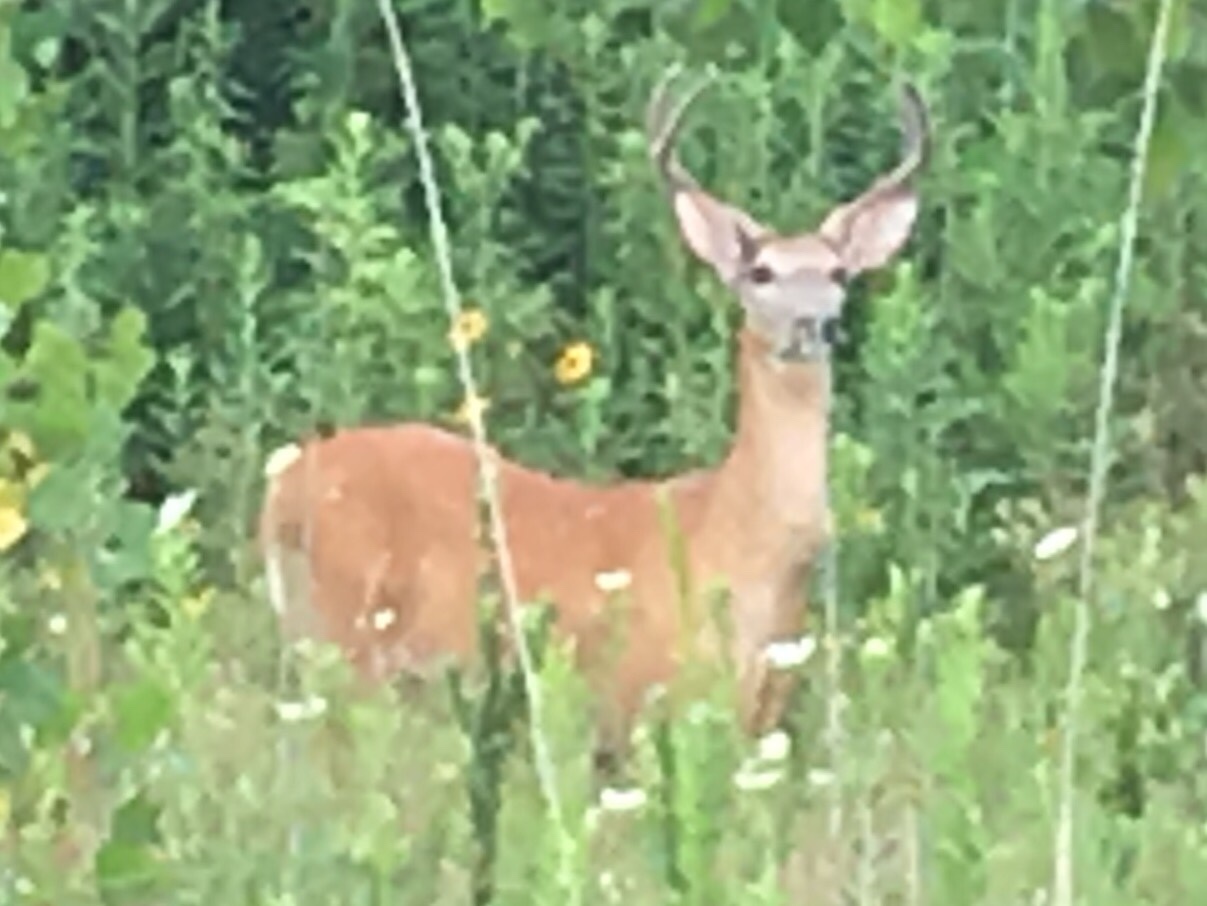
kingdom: Animalia
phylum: Chordata
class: Mammalia
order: Artiodactyla
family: Cervidae
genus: Odocoileus
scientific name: Odocoileus virginianus
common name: White-tailed deer
